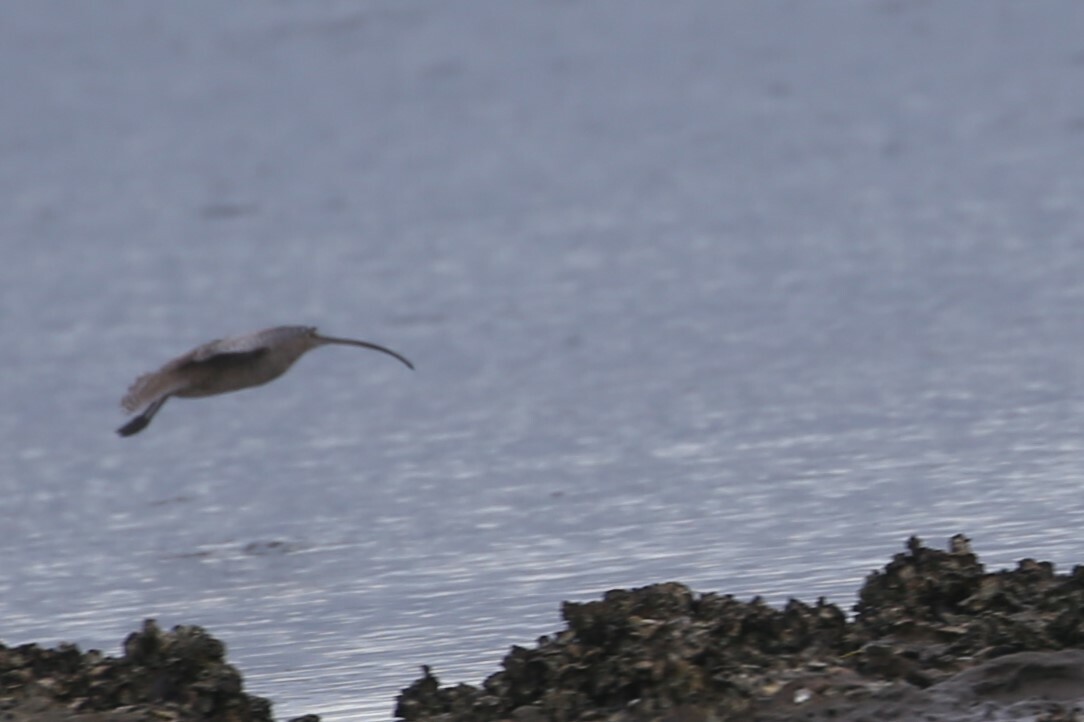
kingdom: Animalia
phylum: Chordata
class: Aves
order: Charadriiformes
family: Scolopacidae
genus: Numenius
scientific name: Numenius madagascariensis
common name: Far eastern curlew
